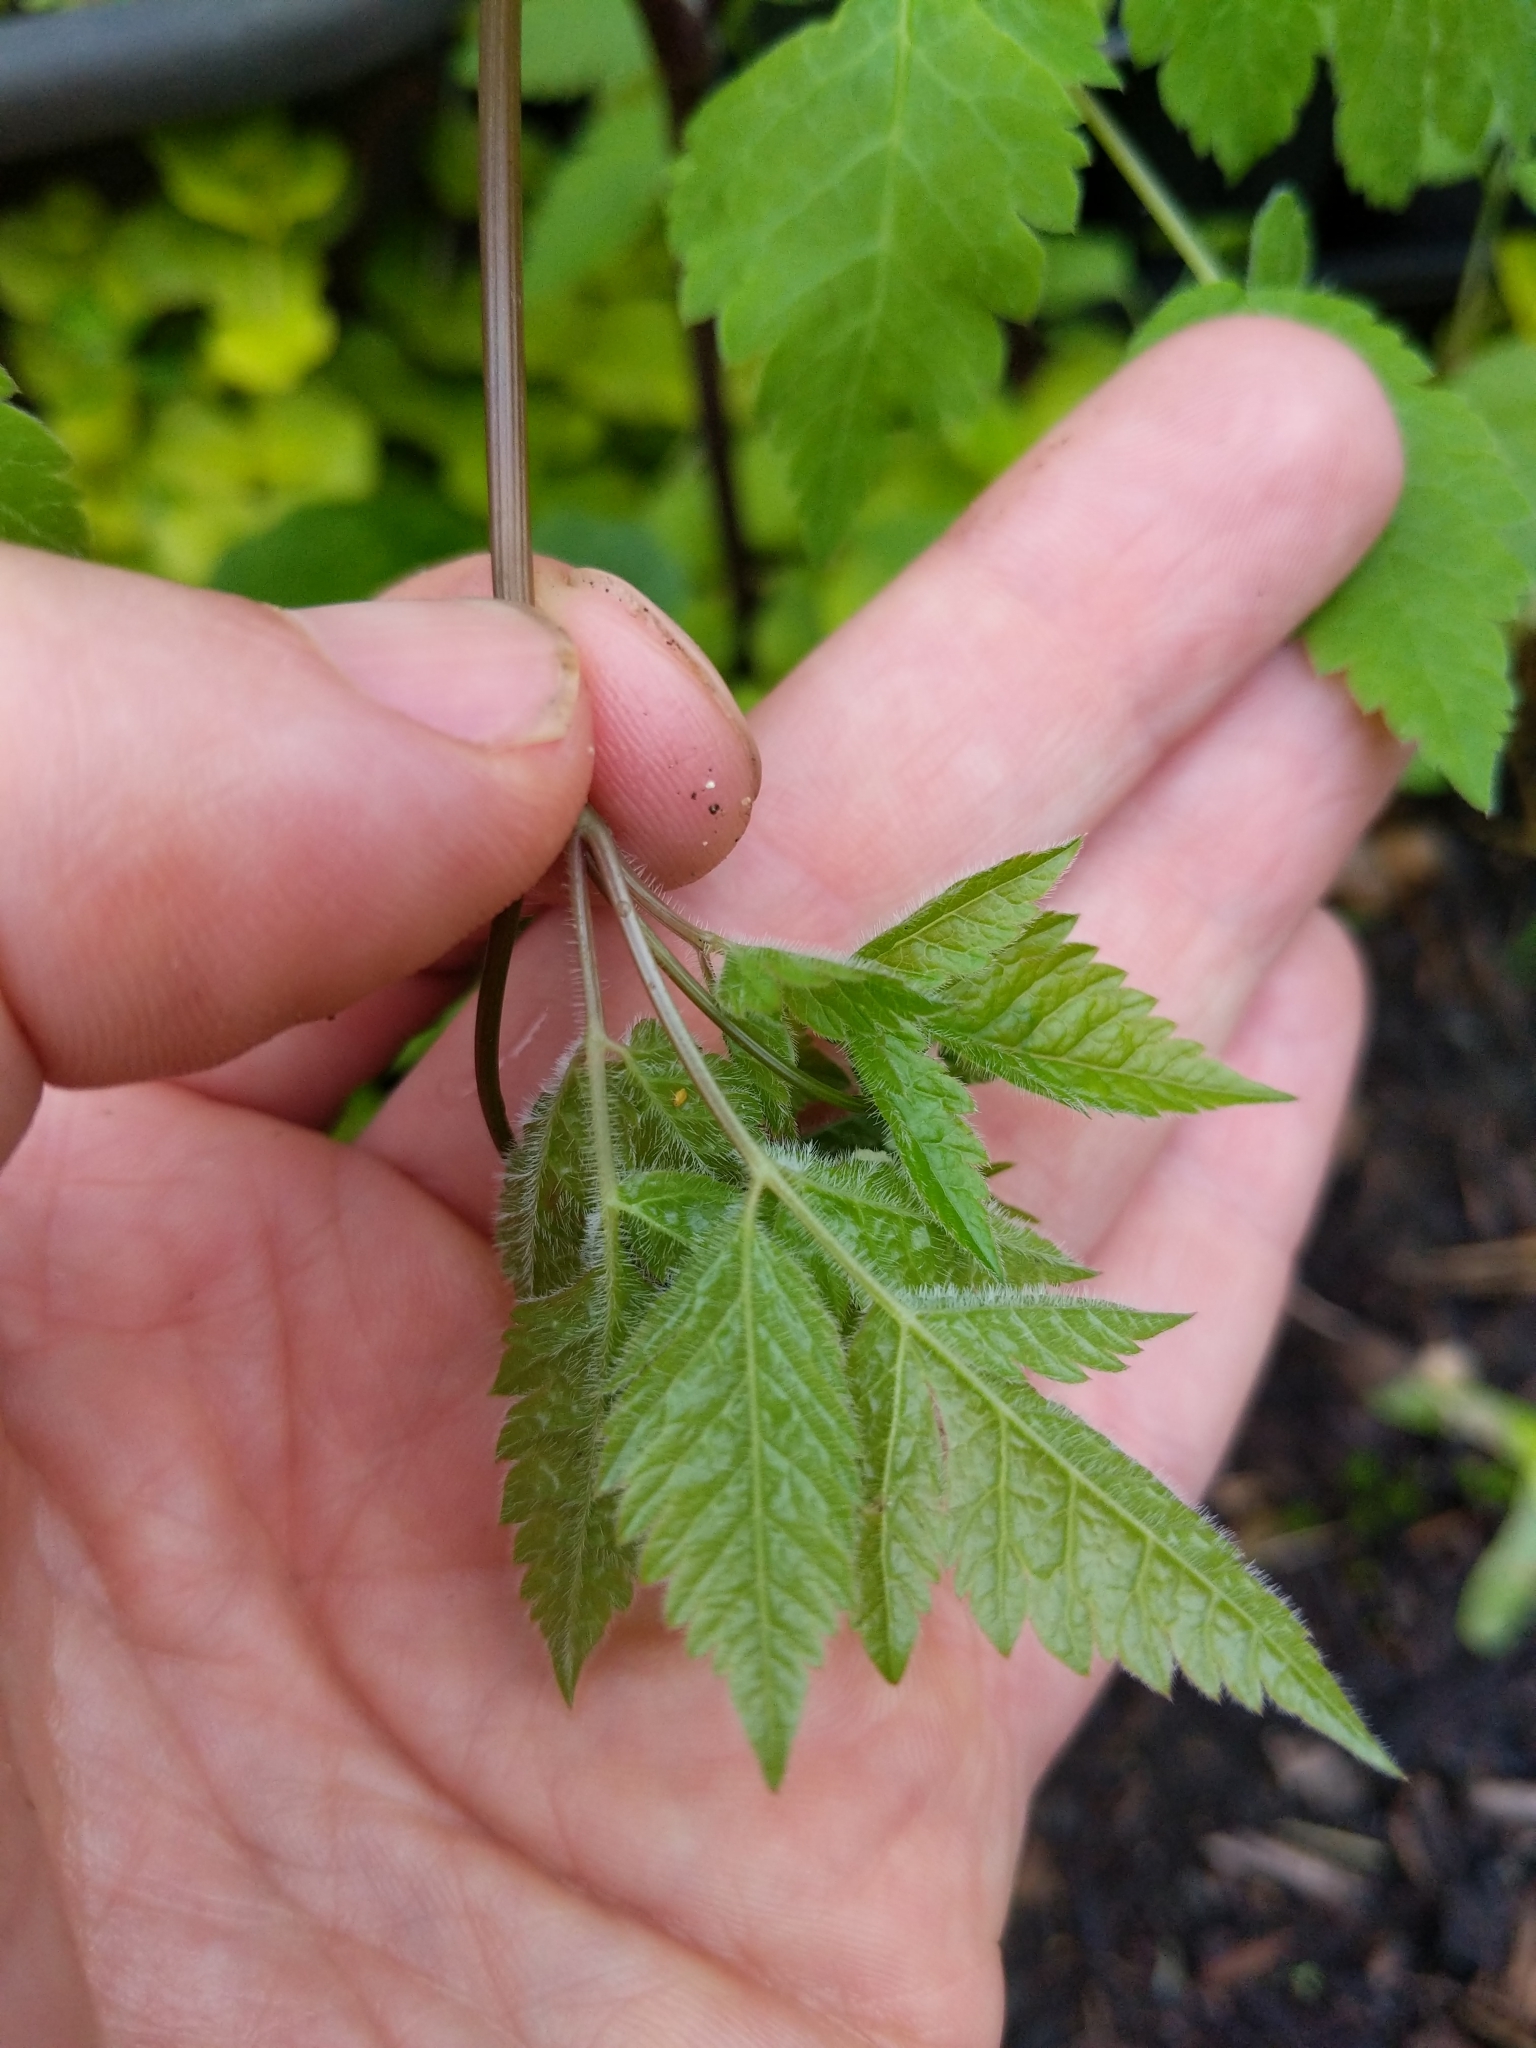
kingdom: Plantae
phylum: Tracheophyta
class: Magnoliopsida
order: Apiales
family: Apiaceae
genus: Osmorhiza
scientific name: Osmorhiza longistylis
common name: Smooth sweet cicely
